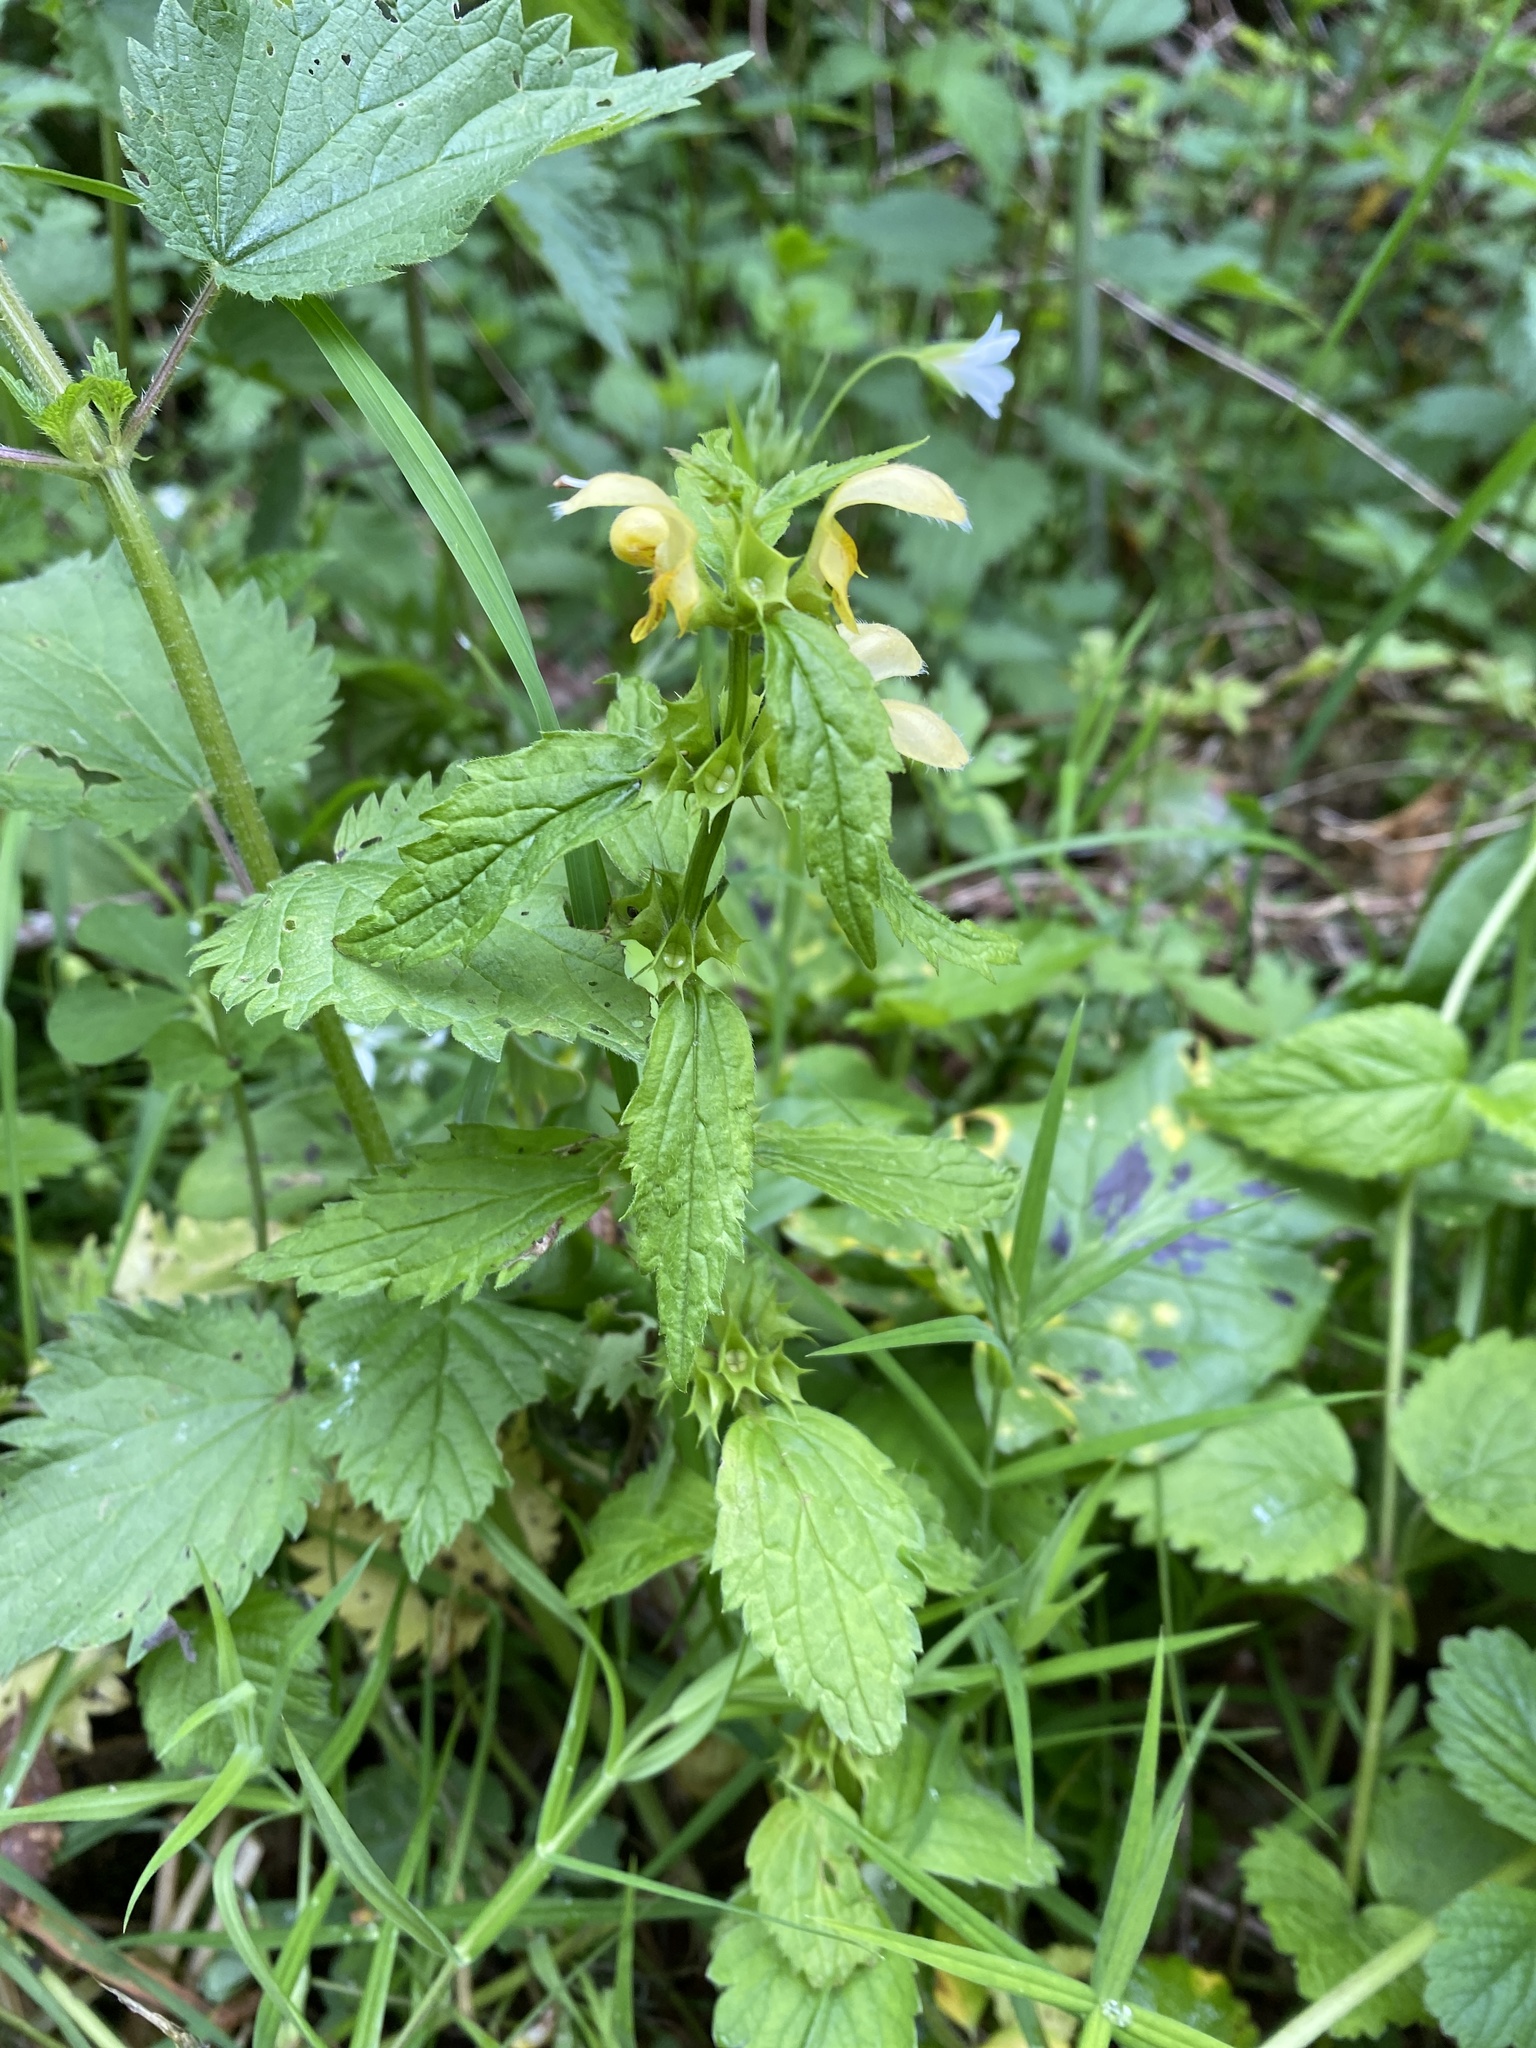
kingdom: Plantae
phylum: Tracheophyta
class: Magnoliopsida
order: Lamiales
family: Lamiaceae
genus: Lamium
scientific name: Lamium galeobdolon
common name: Yellow archangel
